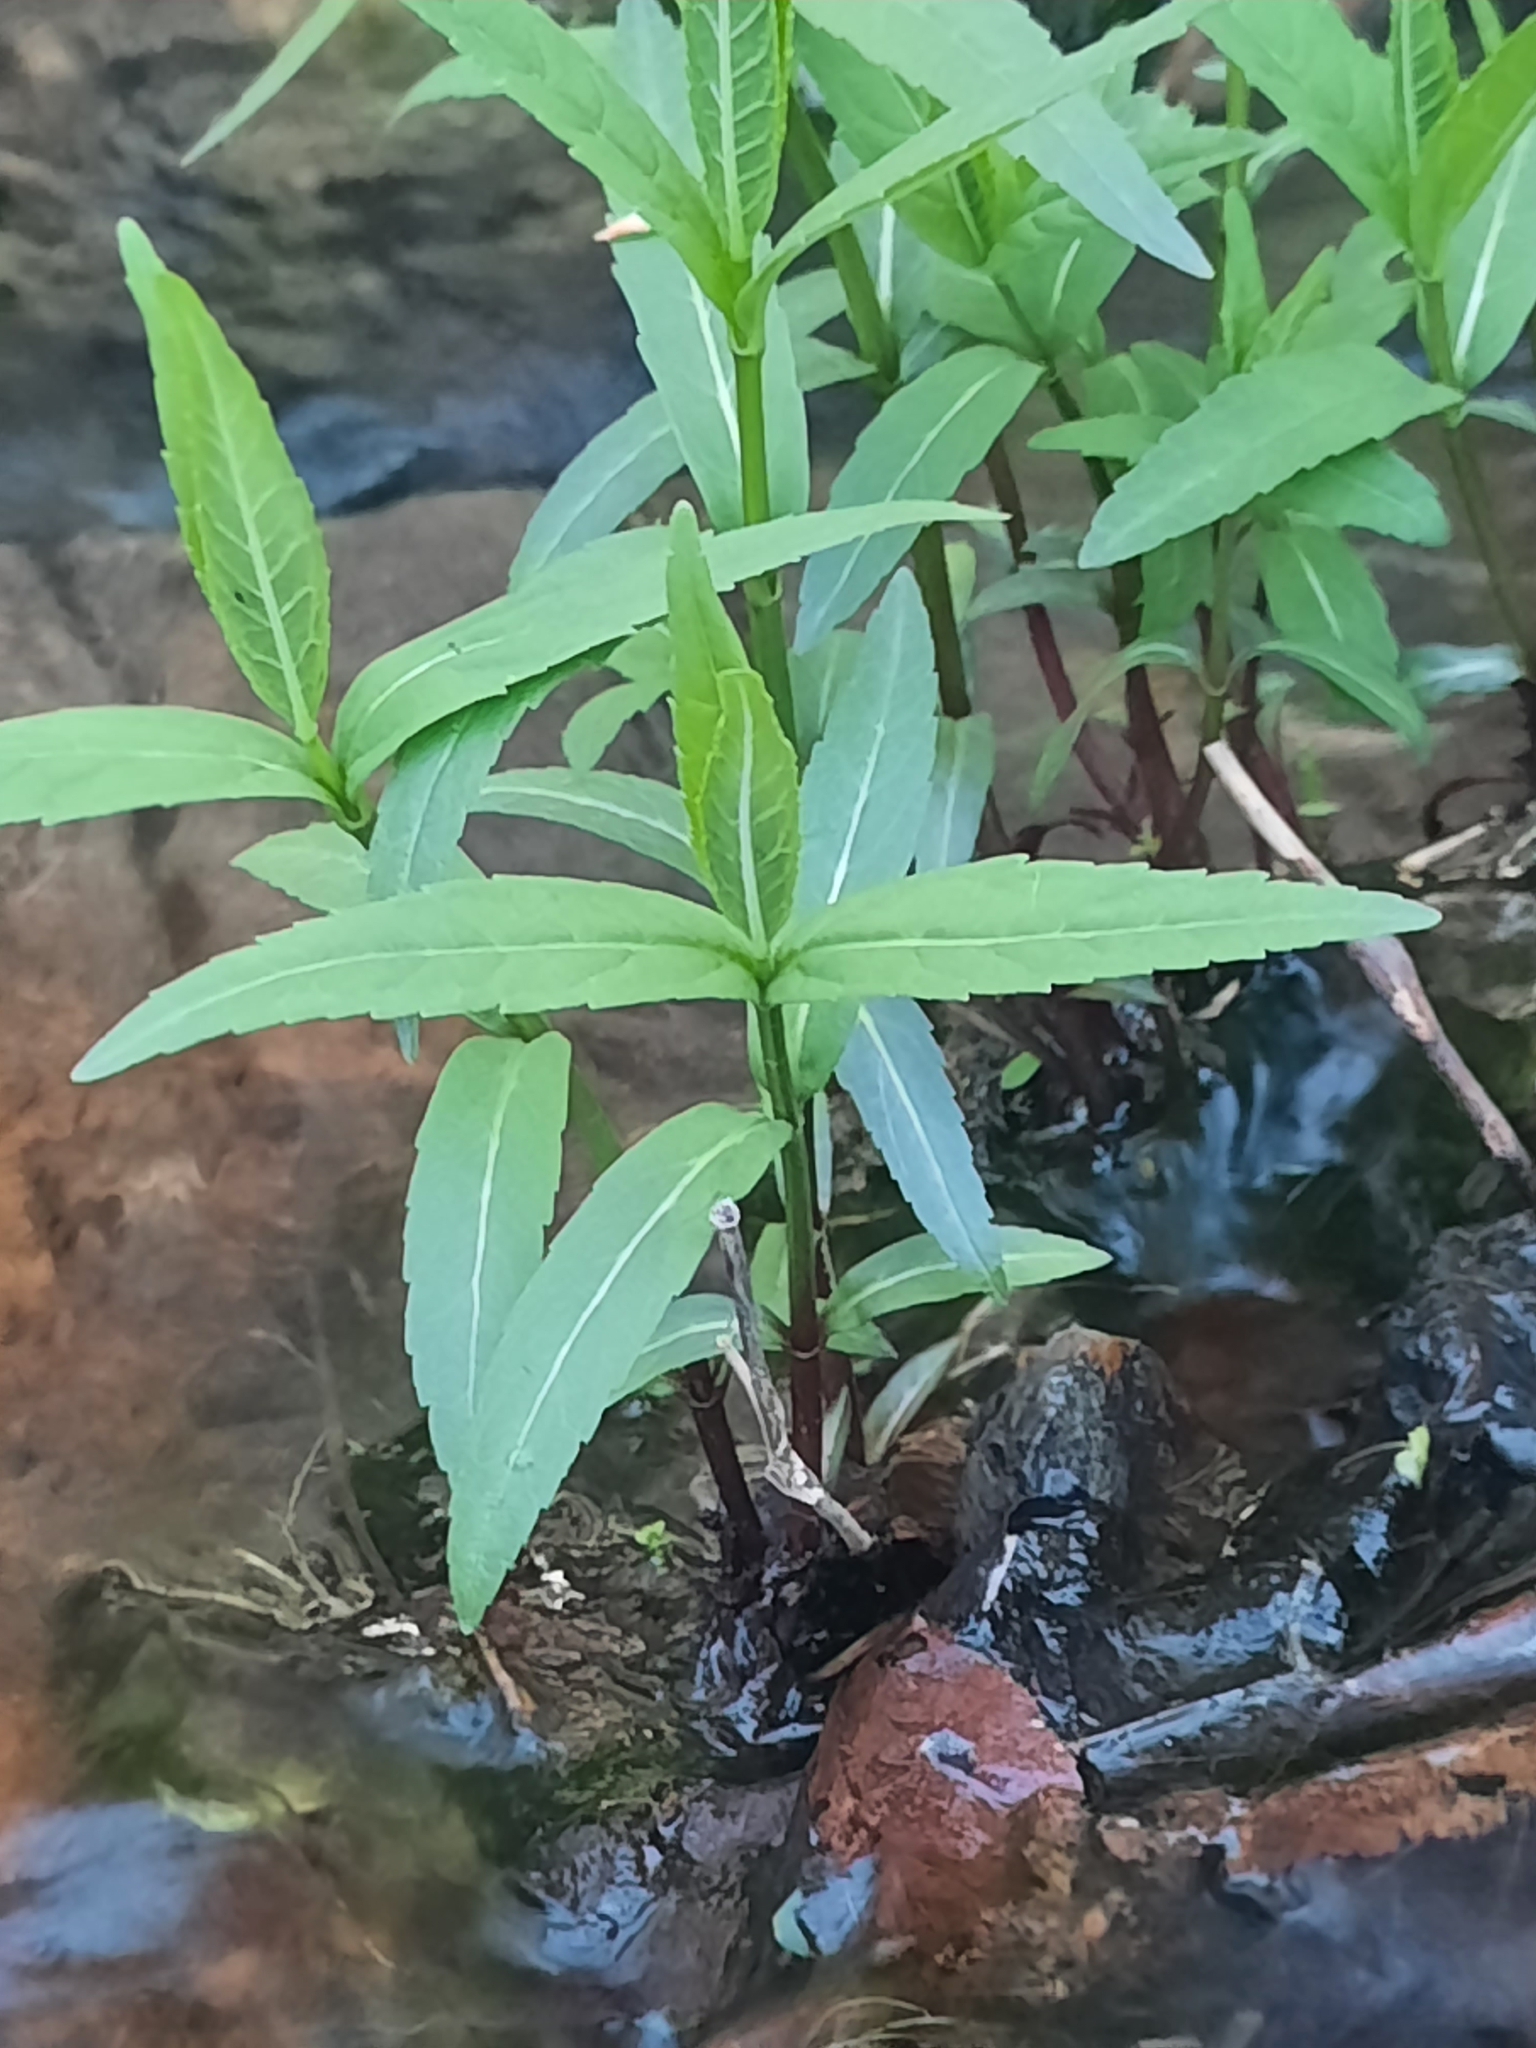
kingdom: Plantae
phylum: Tracheophyta
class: Magnoliopsida
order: Lamiales
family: Plantaginaceae
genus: Chelone
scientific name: Chelone glabra
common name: Snakehead
